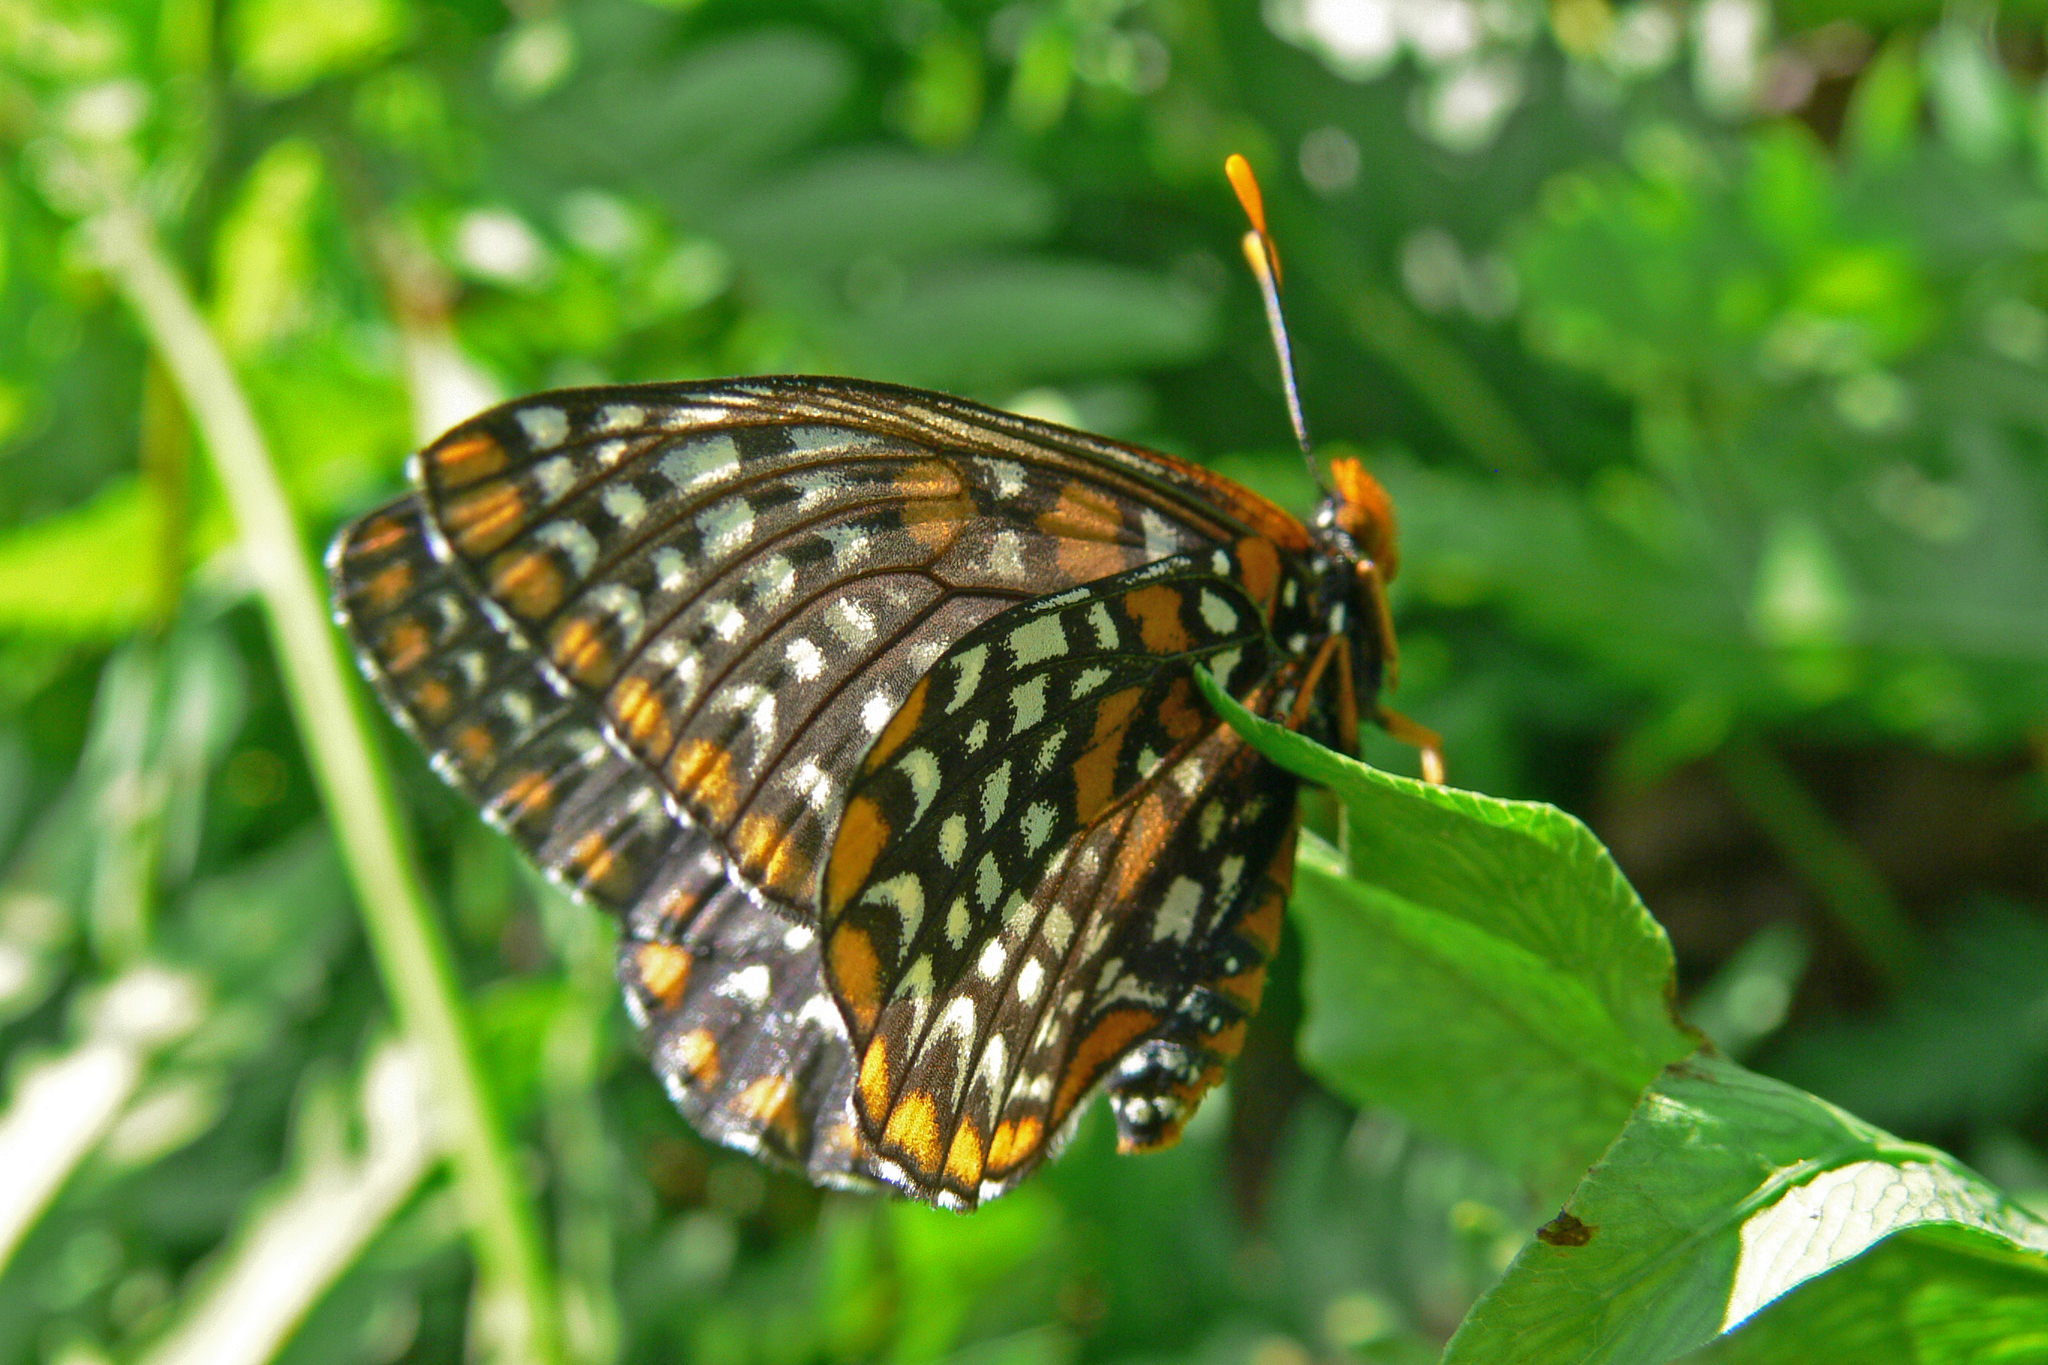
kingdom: Animalia
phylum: Arthropoda
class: Insecta
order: Lepidoptera
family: Nymphalidae
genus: Euphydryas
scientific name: Euphydryas phaeton
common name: Baltimore checkerspot
